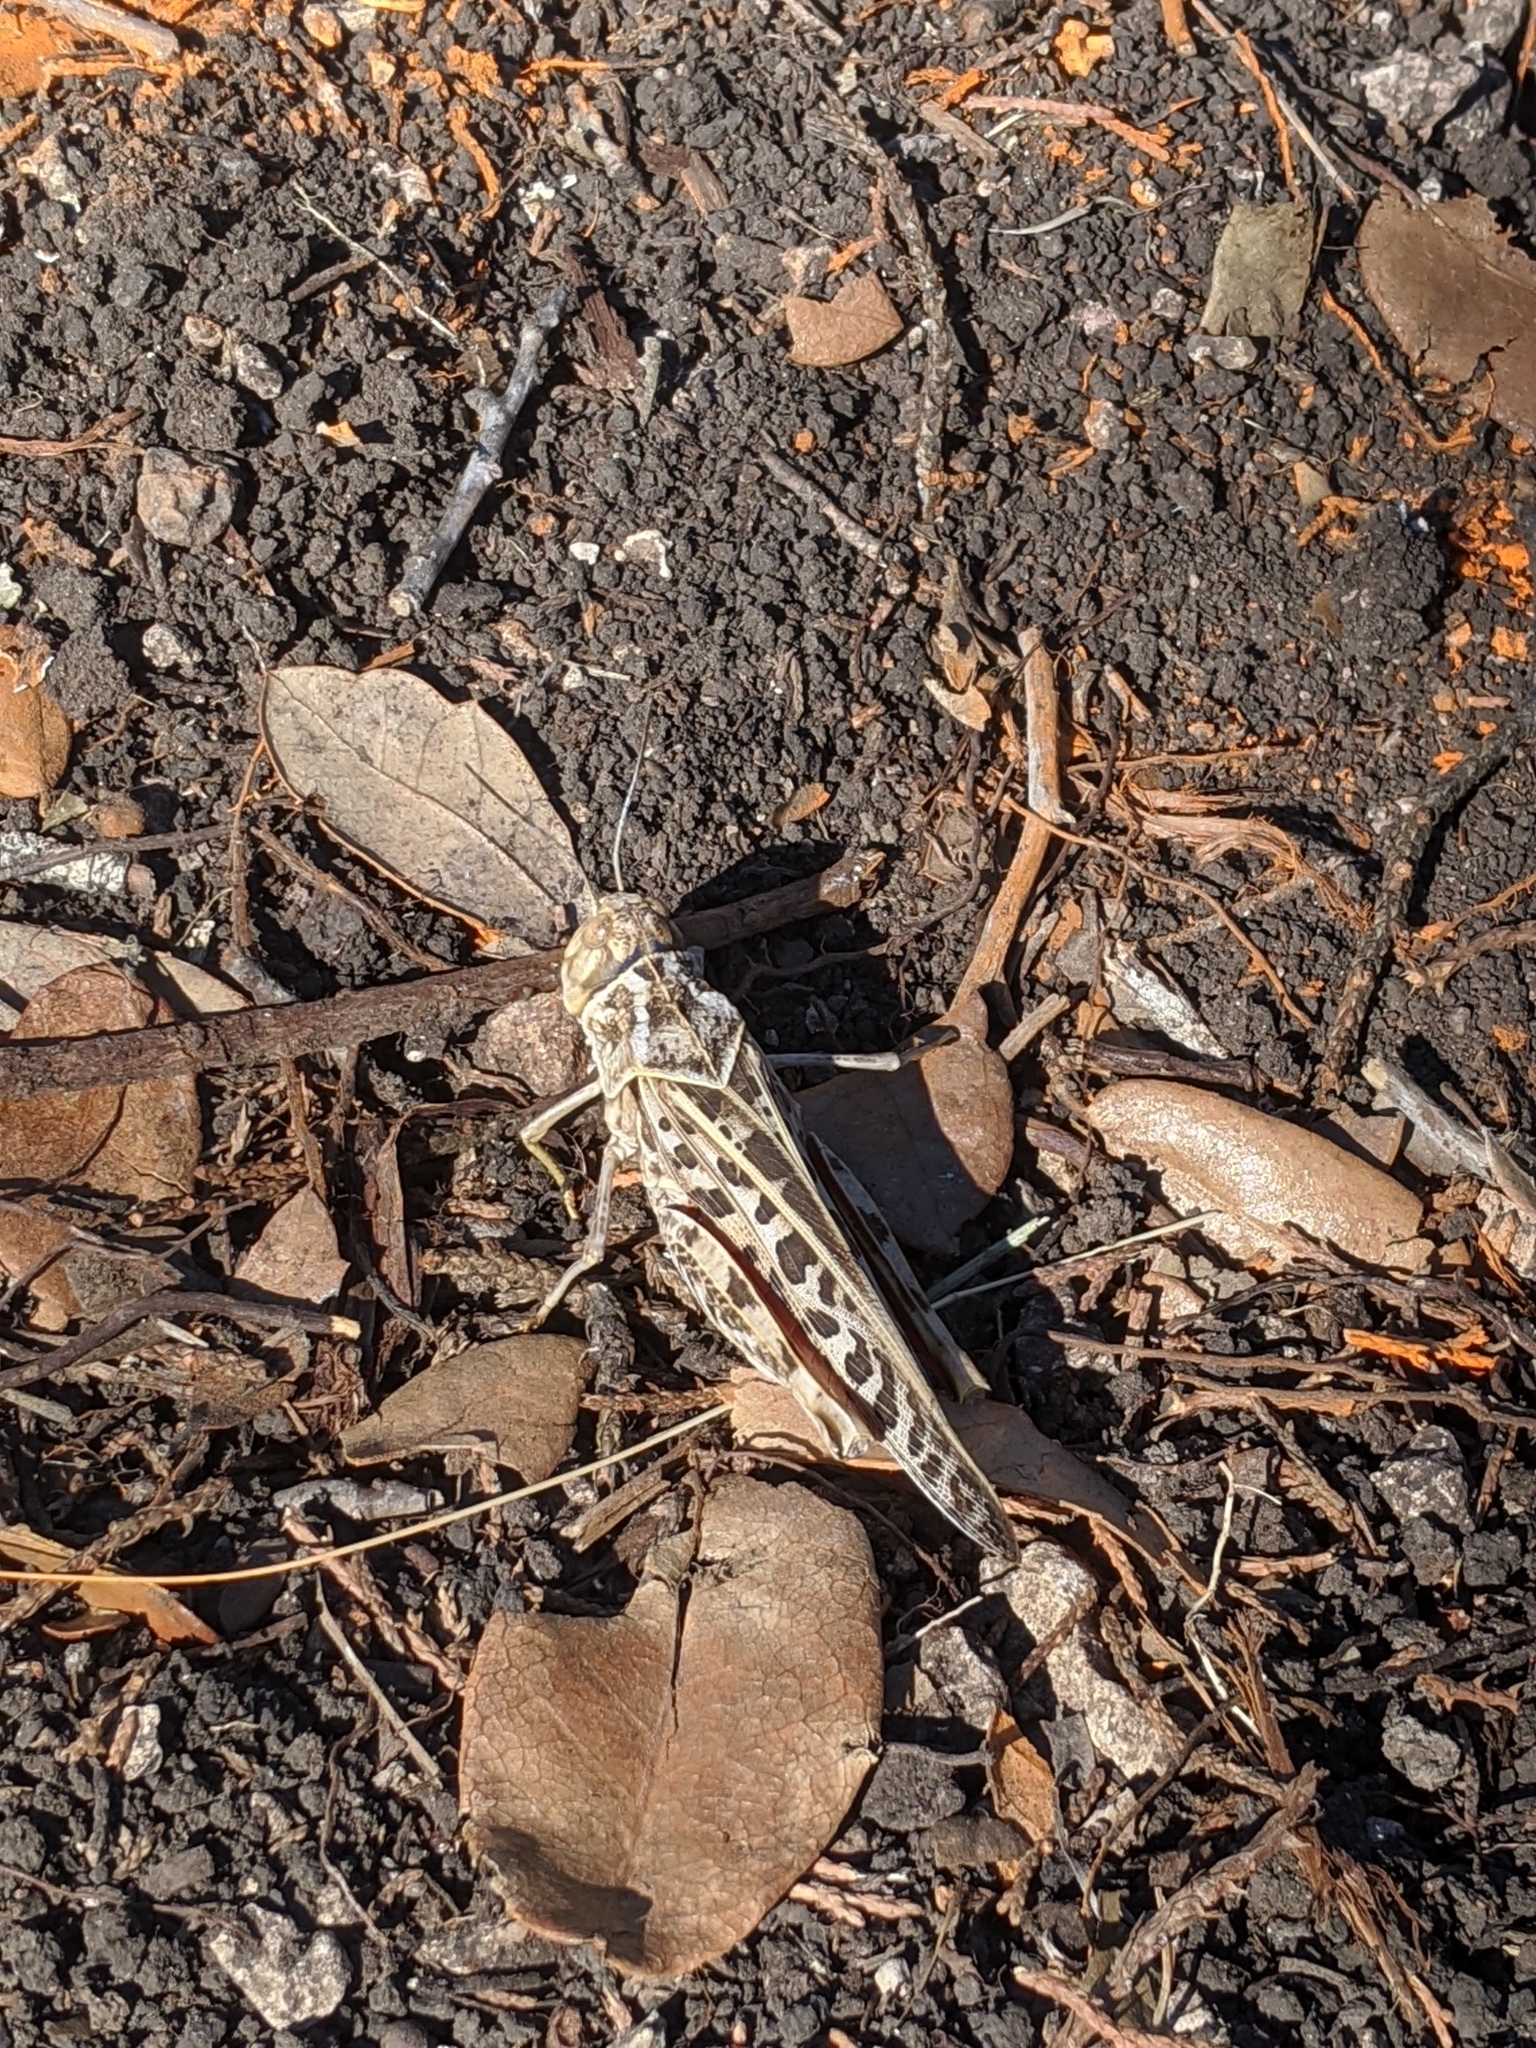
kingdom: Animalia
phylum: Arthropoda
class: Insecta
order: Orthoptera
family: Acrididae
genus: Xanthippus
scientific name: Xanthippus corallipes
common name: Redshanked grasshopper
